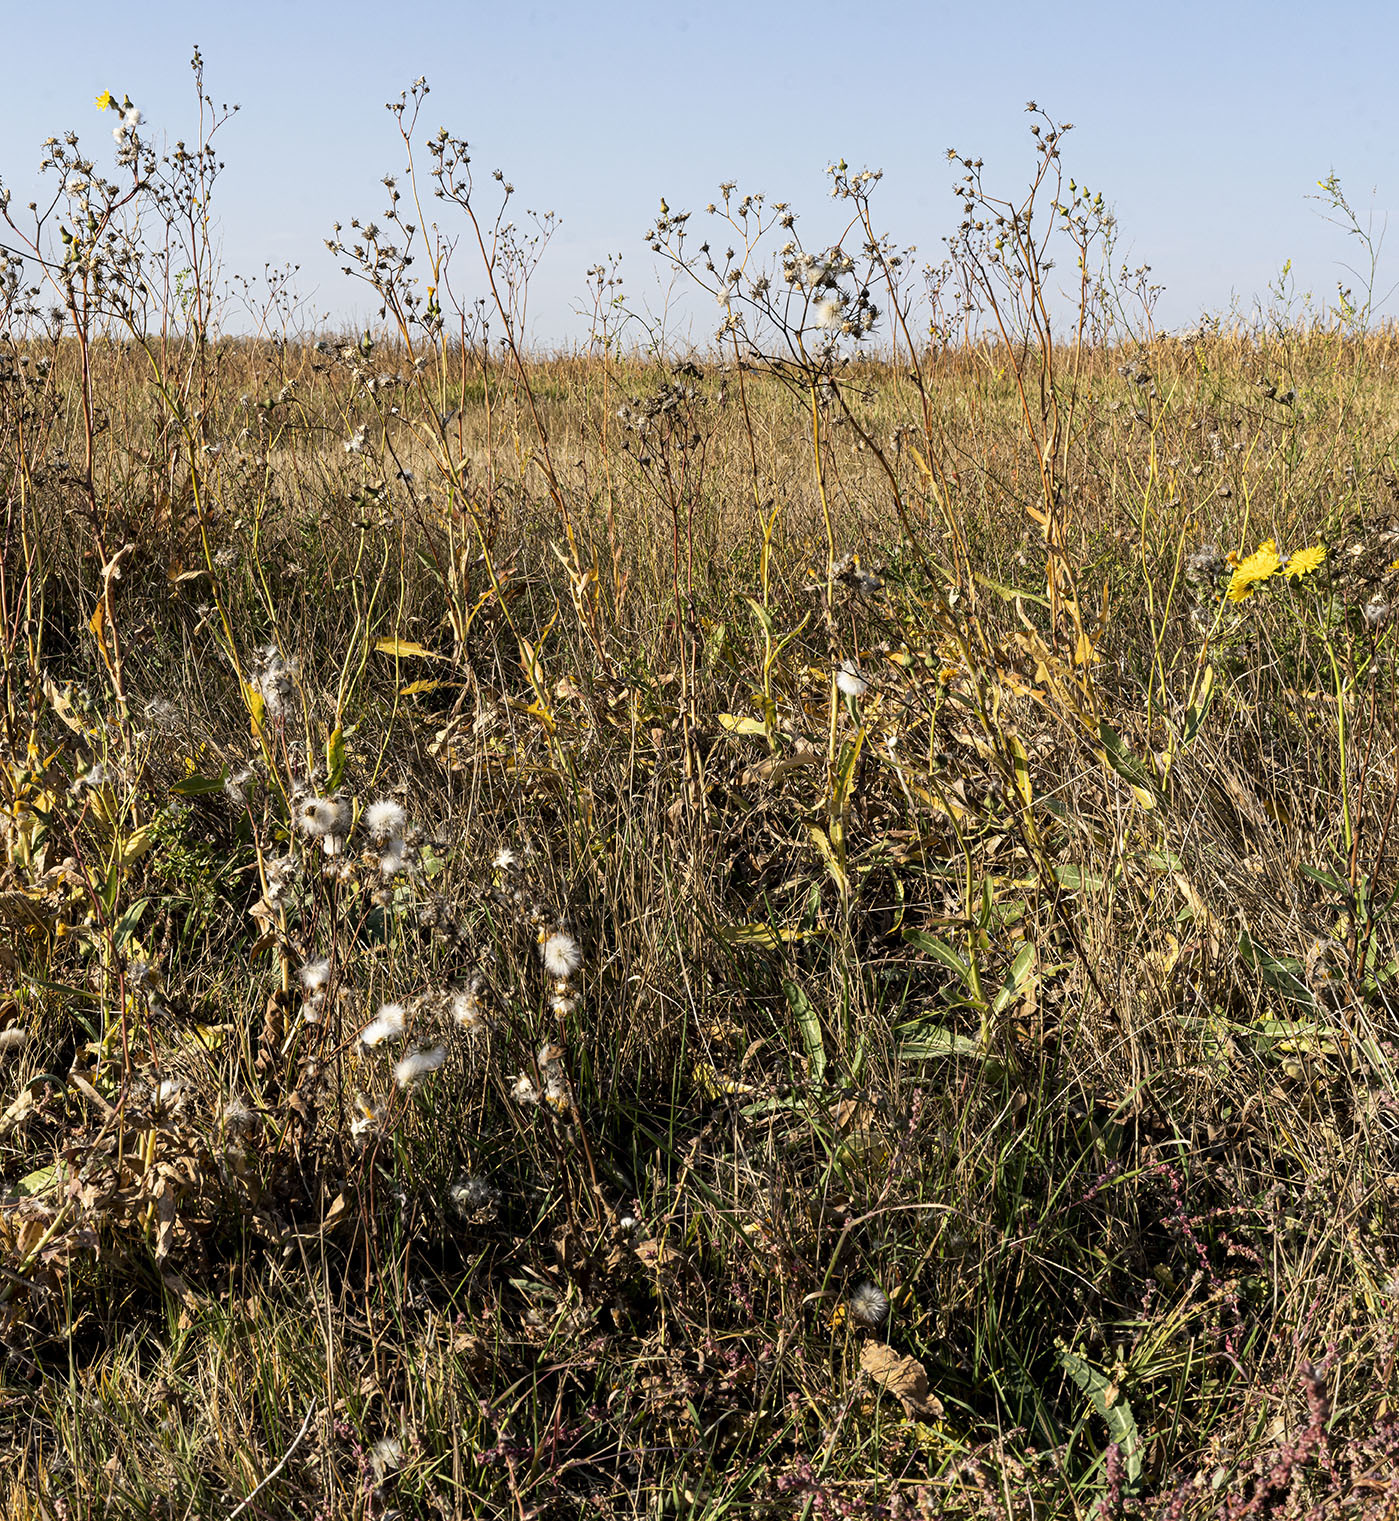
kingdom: Plantae
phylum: Tracheophyta
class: Magnoliopsida
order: Asterales
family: Asteraceae
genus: Sonchus
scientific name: Sonchus arvensis
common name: Perennial sow-thistle
